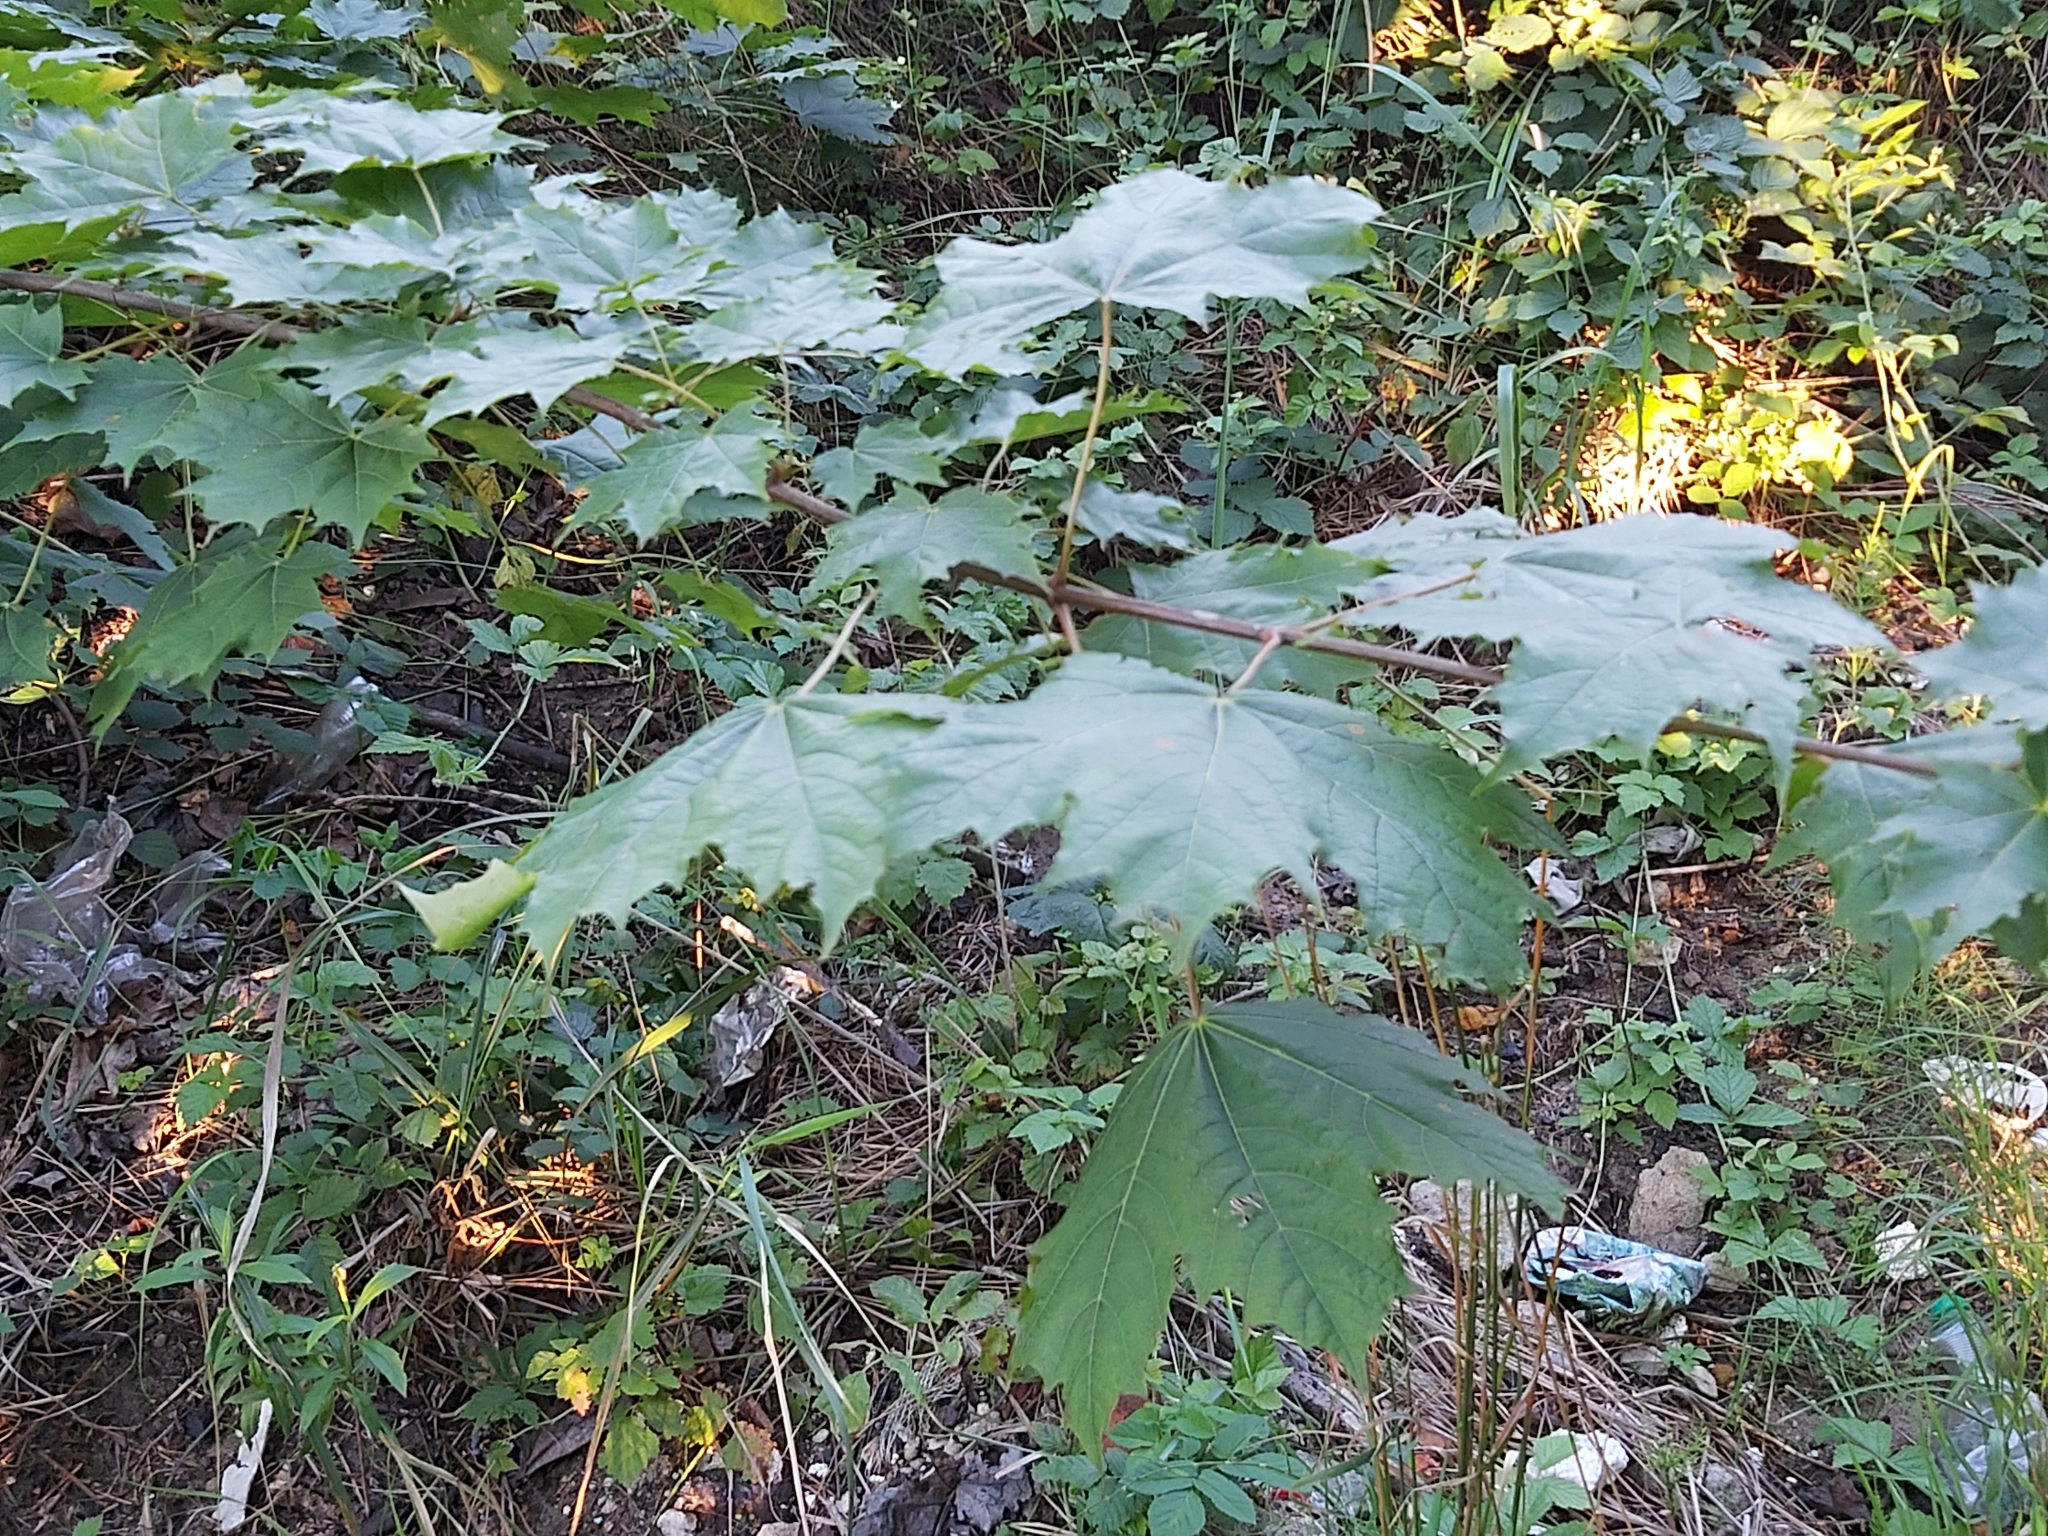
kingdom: Plantae
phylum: Tracheophyta
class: Magnoliopsida
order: Sapindales
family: Sapindaceae
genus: Acer
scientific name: Acer platanoides
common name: Norway maple
